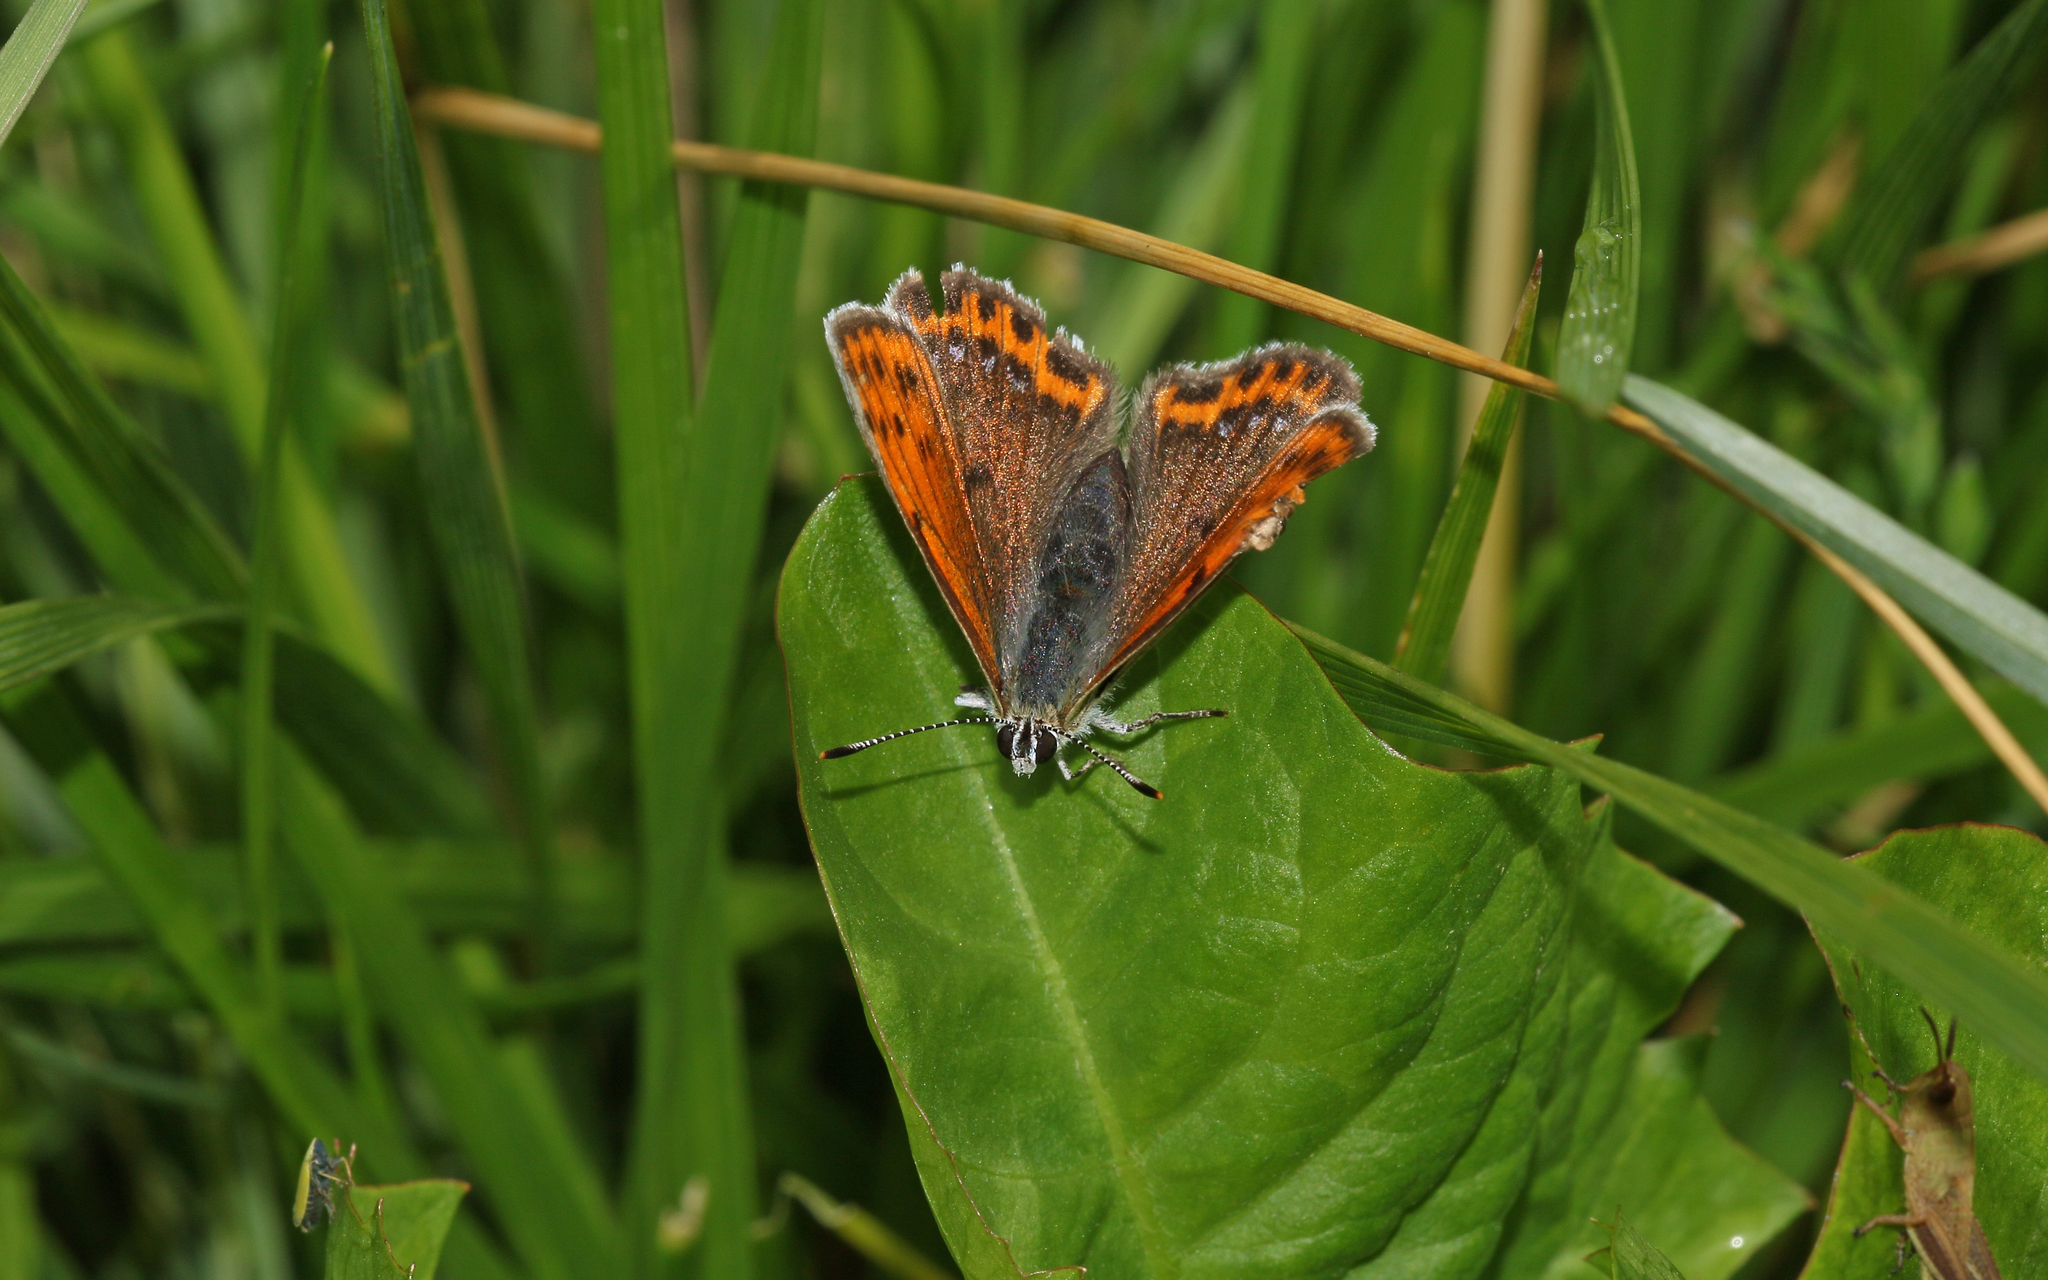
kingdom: Animalia
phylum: Arthropoda
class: Insecta
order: Lepidoptera
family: Lycaenidae
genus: Palaeochrysophanus
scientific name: Palaeochrysophanus candens
